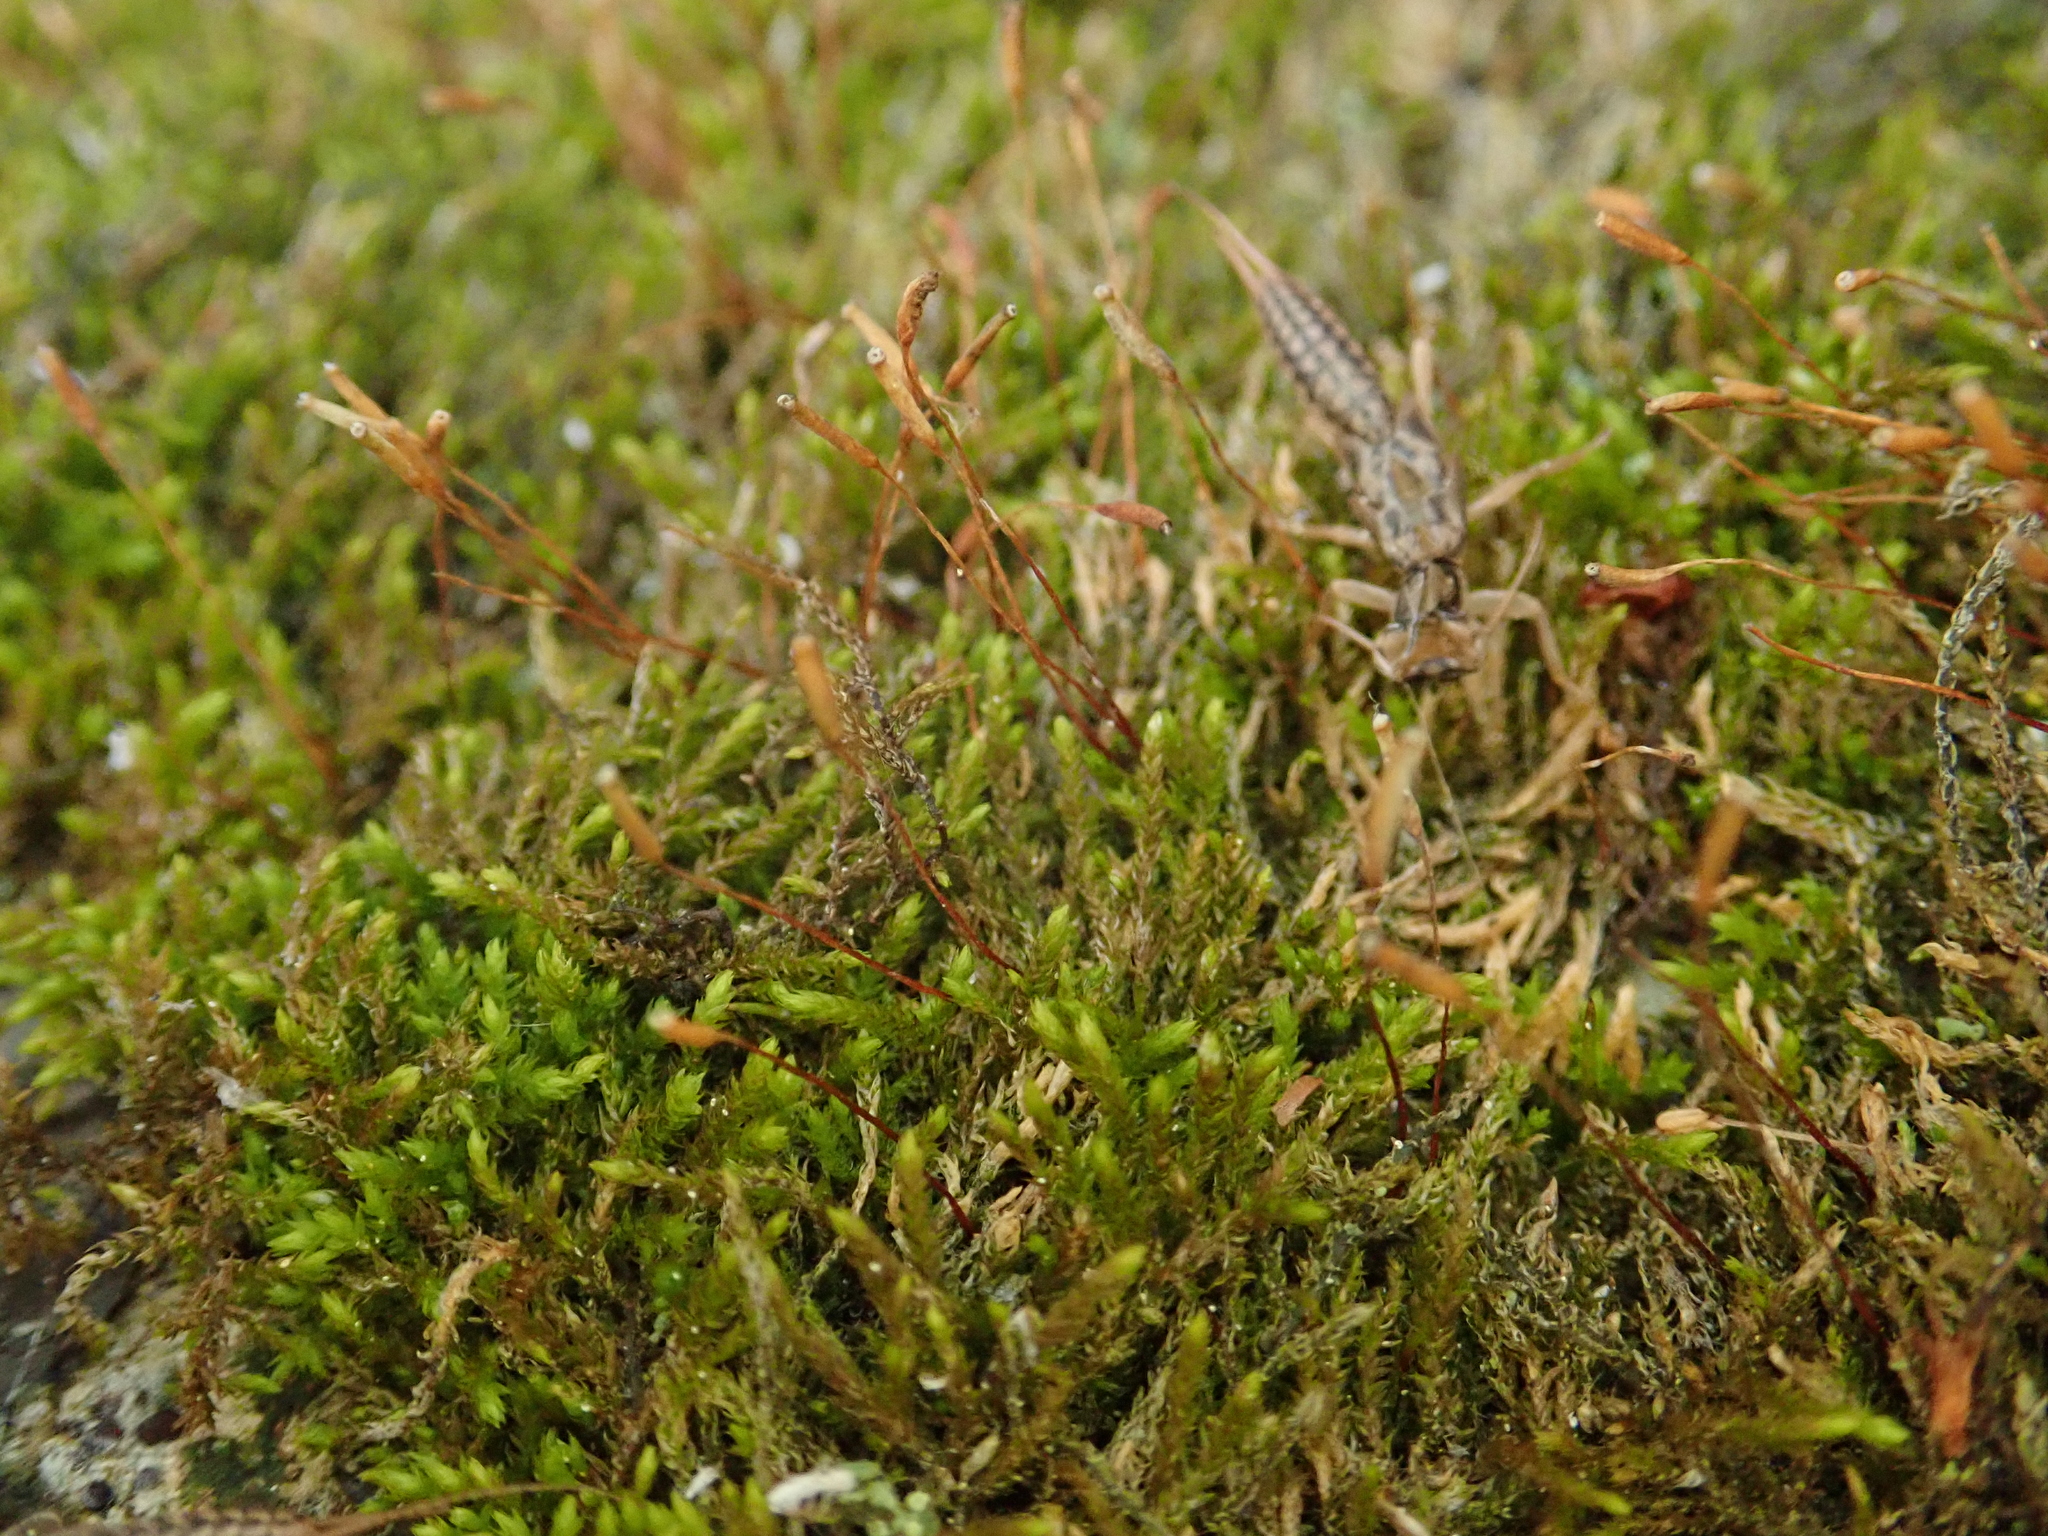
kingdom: Plantae
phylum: Bryophyta
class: Bryopsida
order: Hypnales
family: Leskeaceae
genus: Leskea
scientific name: Leskea polycarpa
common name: Many-fruited leske's moss
